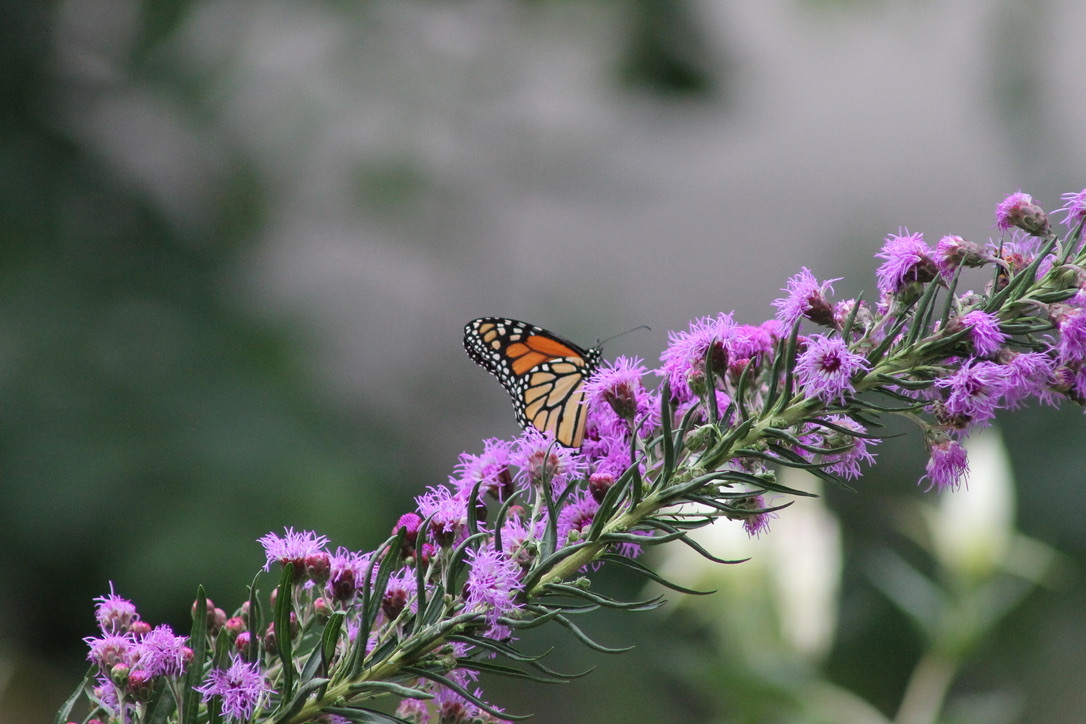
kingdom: Animalia
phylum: Arthropoda
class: Insecta
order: Lepidoptera
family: Nymphalidae
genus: Danaus
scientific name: Danaus plexippus
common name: Monarch
